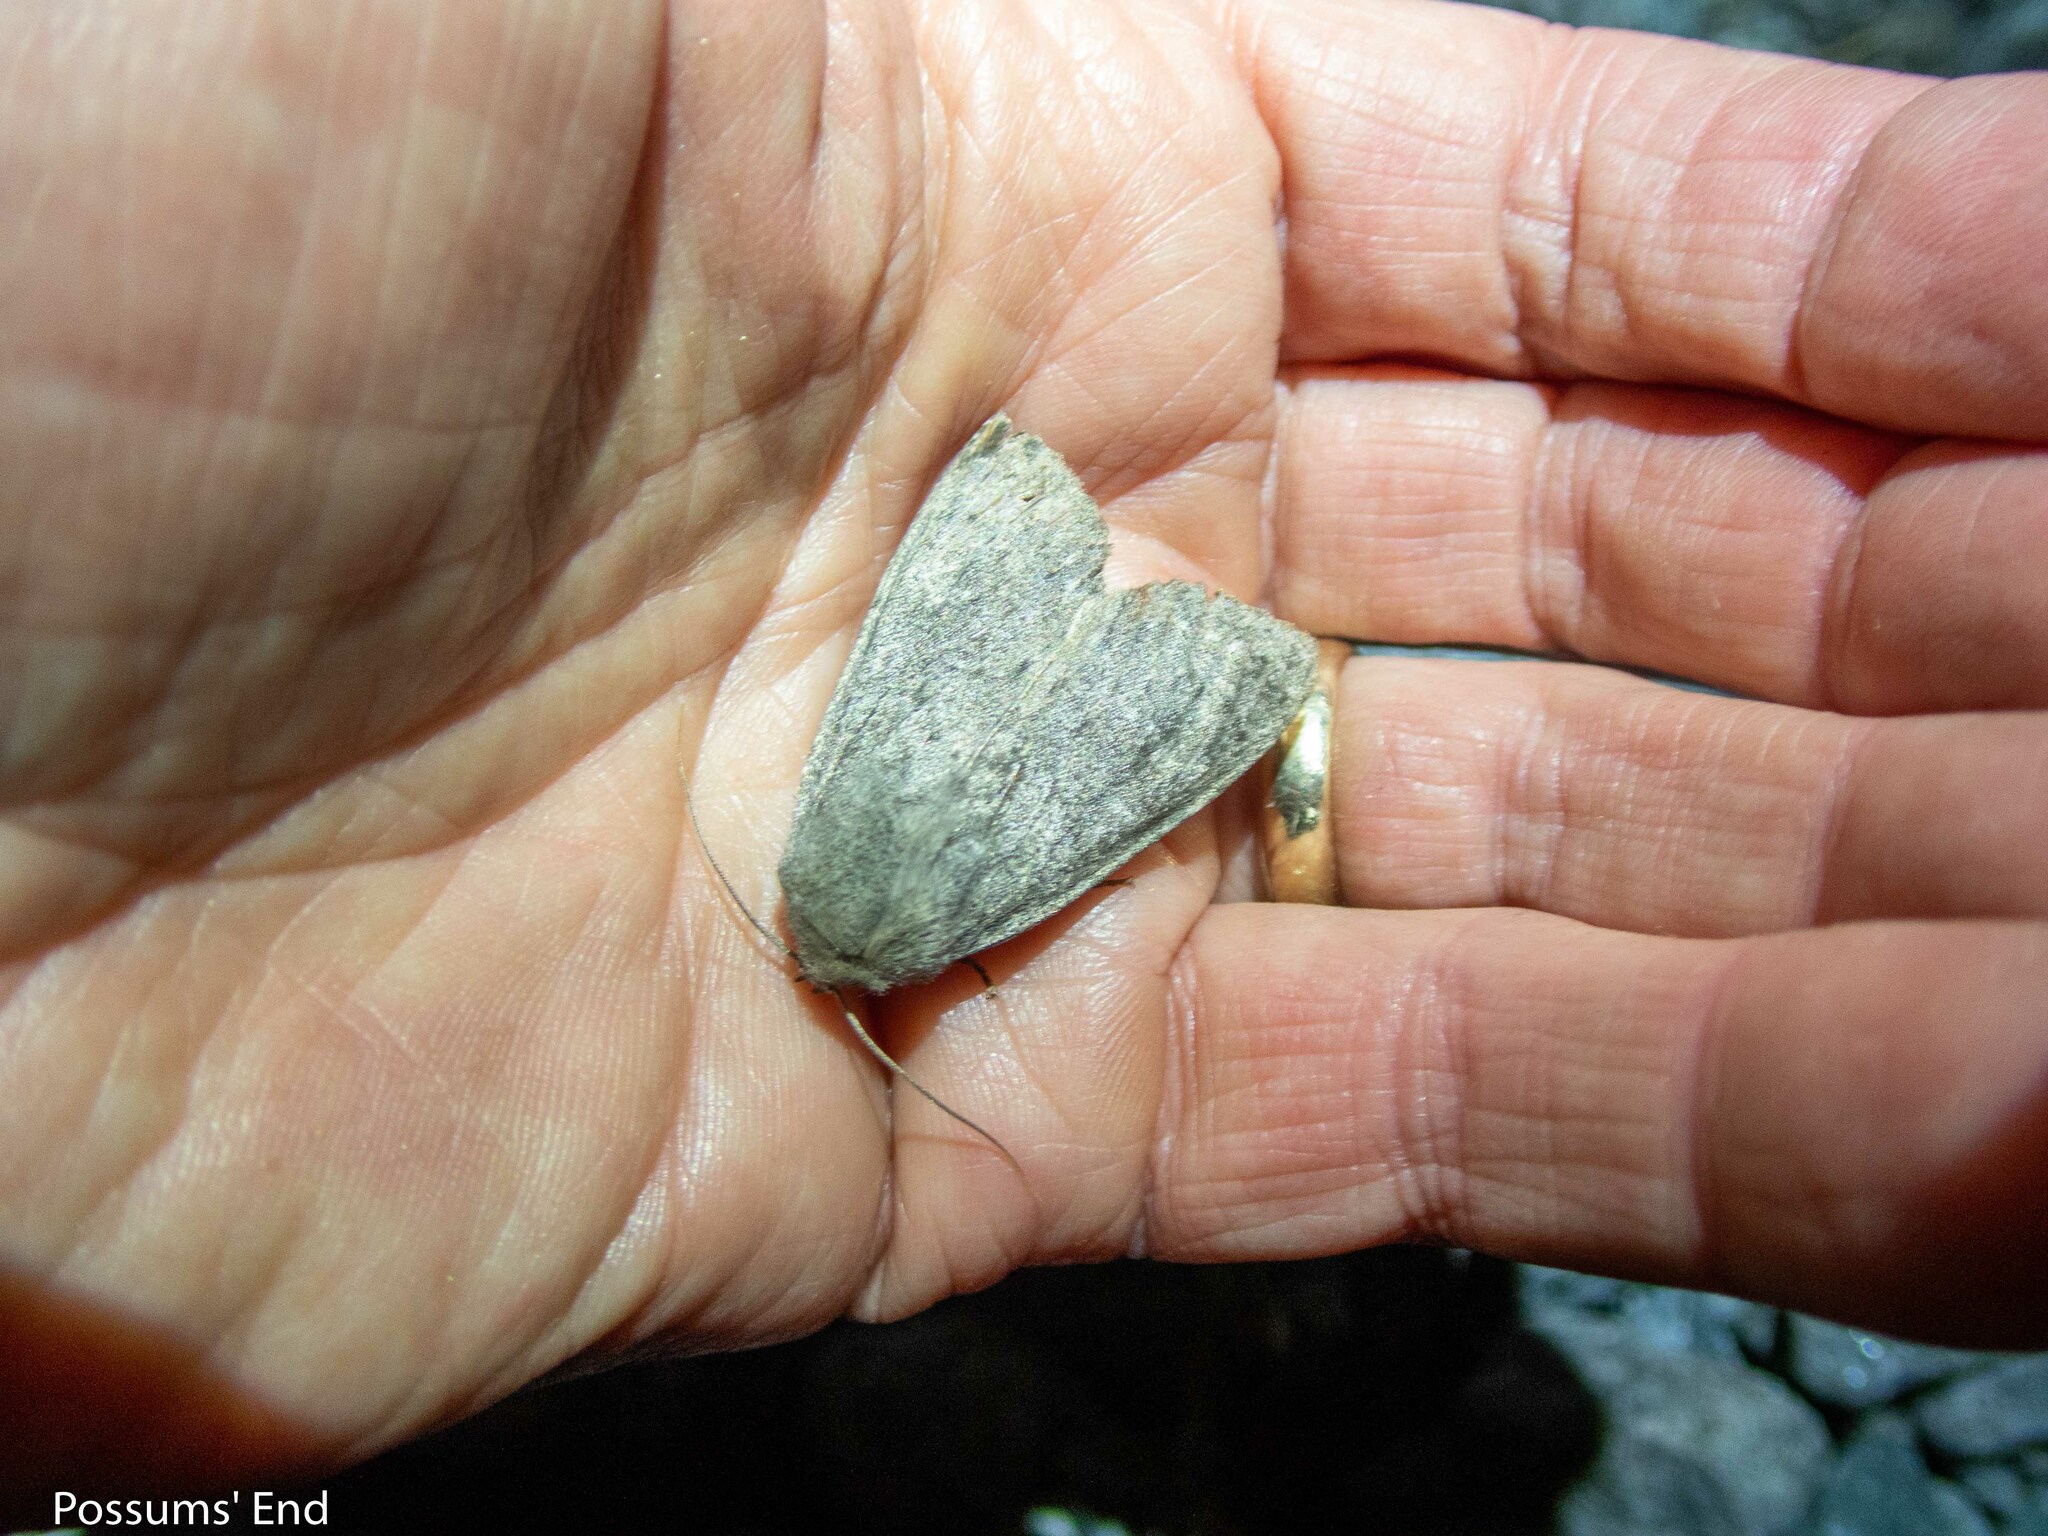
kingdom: Animalia
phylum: Arthropoda
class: Insecta
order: Lepidoptera
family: Noctuidae
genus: Ichneutica
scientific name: Ichneutica nullifera
